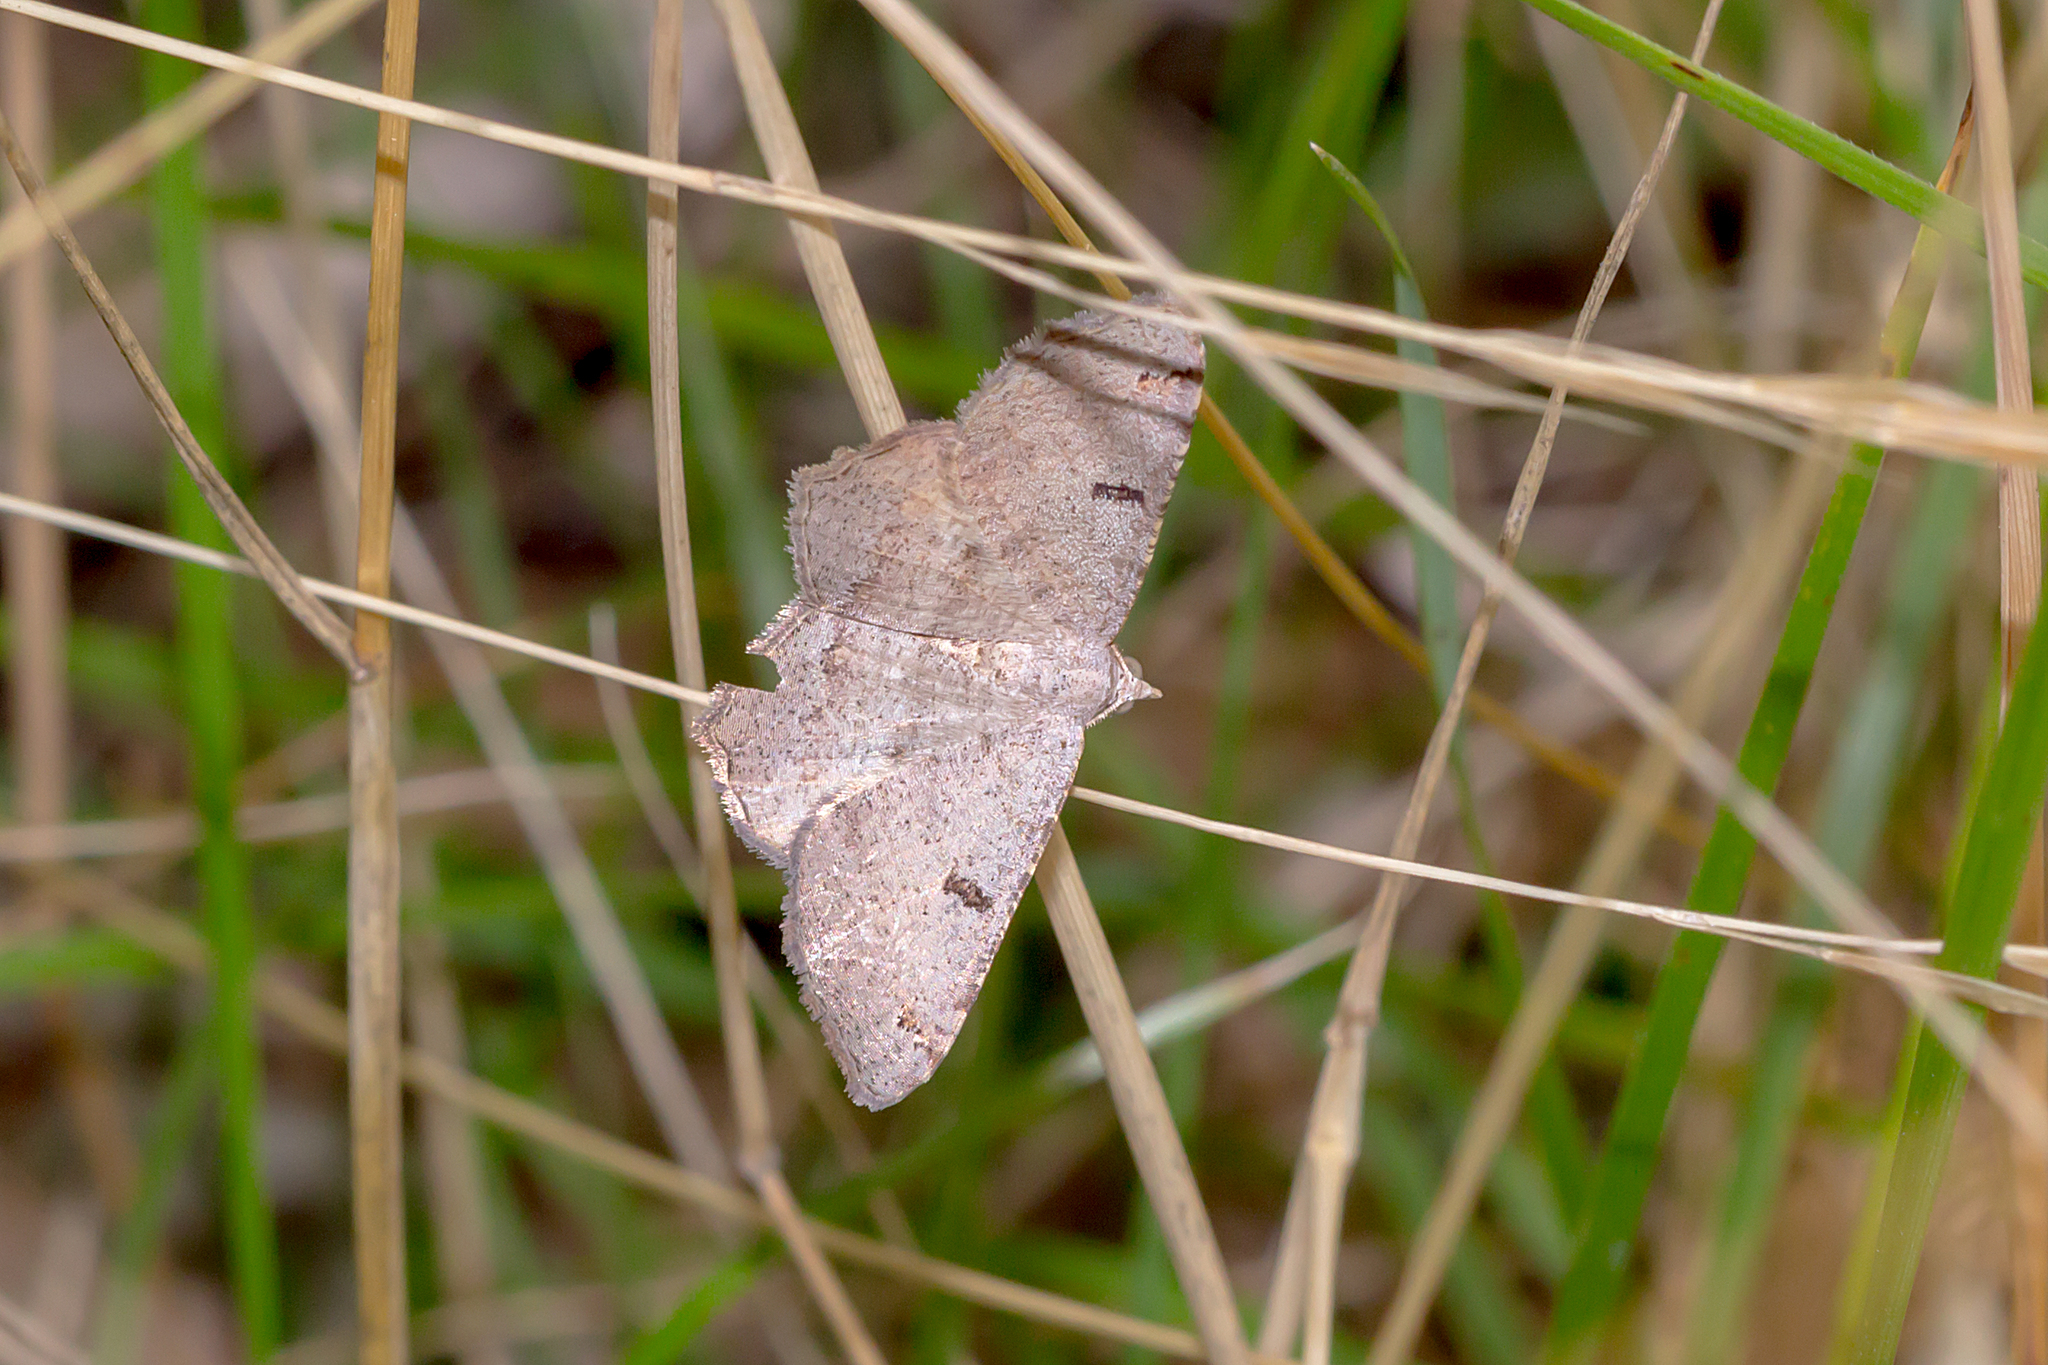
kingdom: Animalia
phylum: Arthropoda
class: Insecta
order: Lepidoptera
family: Geometridae
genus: Dissomorphia
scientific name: Dissomorphia australiaria
